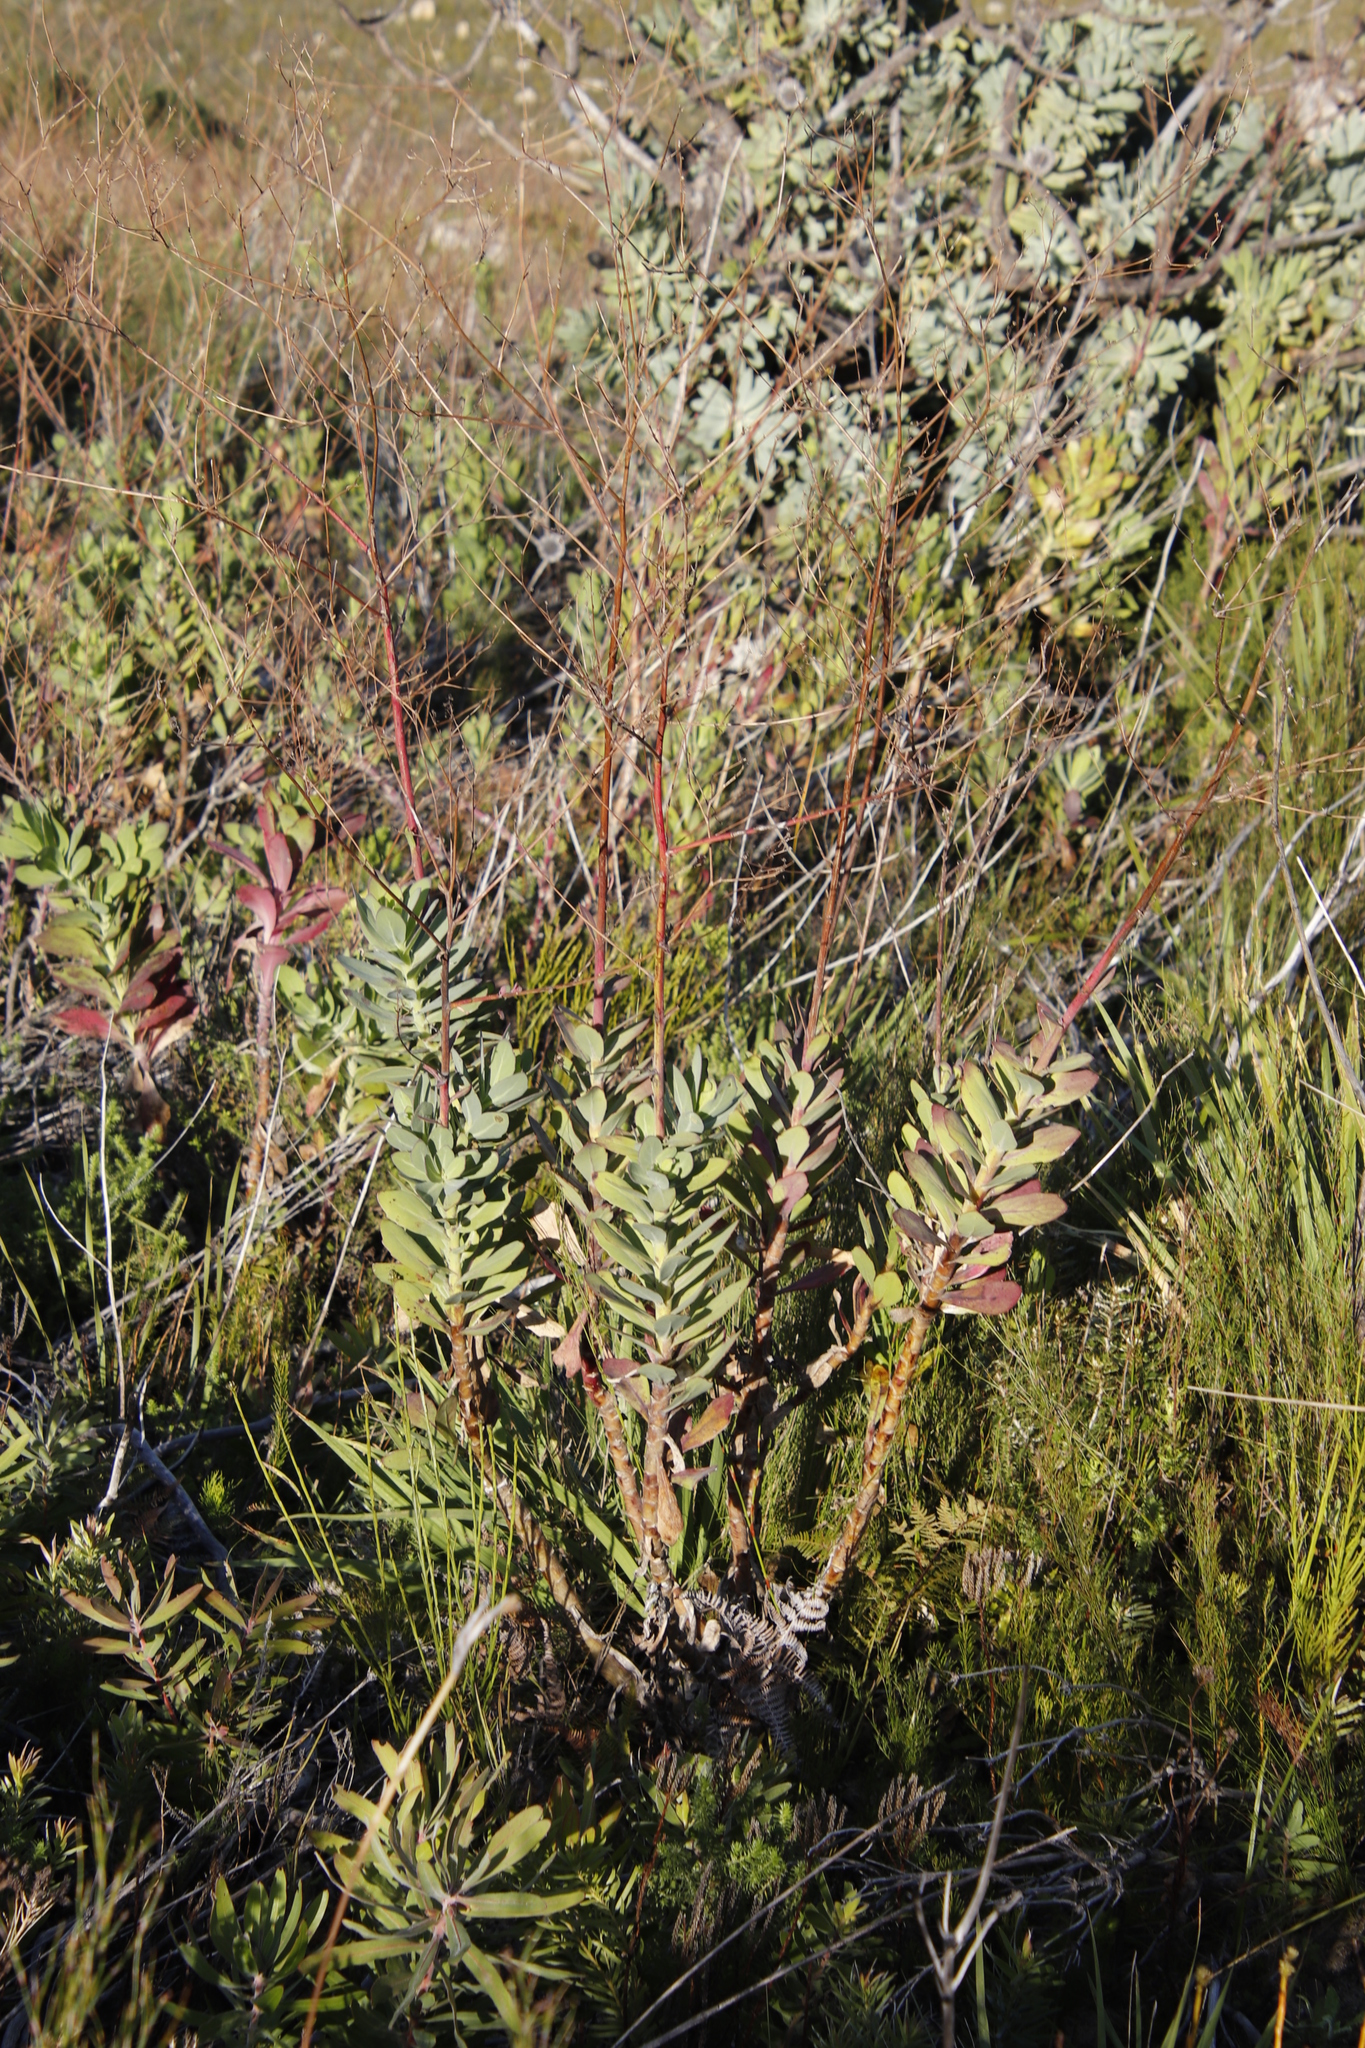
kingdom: Plantae
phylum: Tracheophyta
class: Magnoliopsida
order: Asterales
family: Asteraceae
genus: Othonna
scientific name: Othonna quinquedentata
